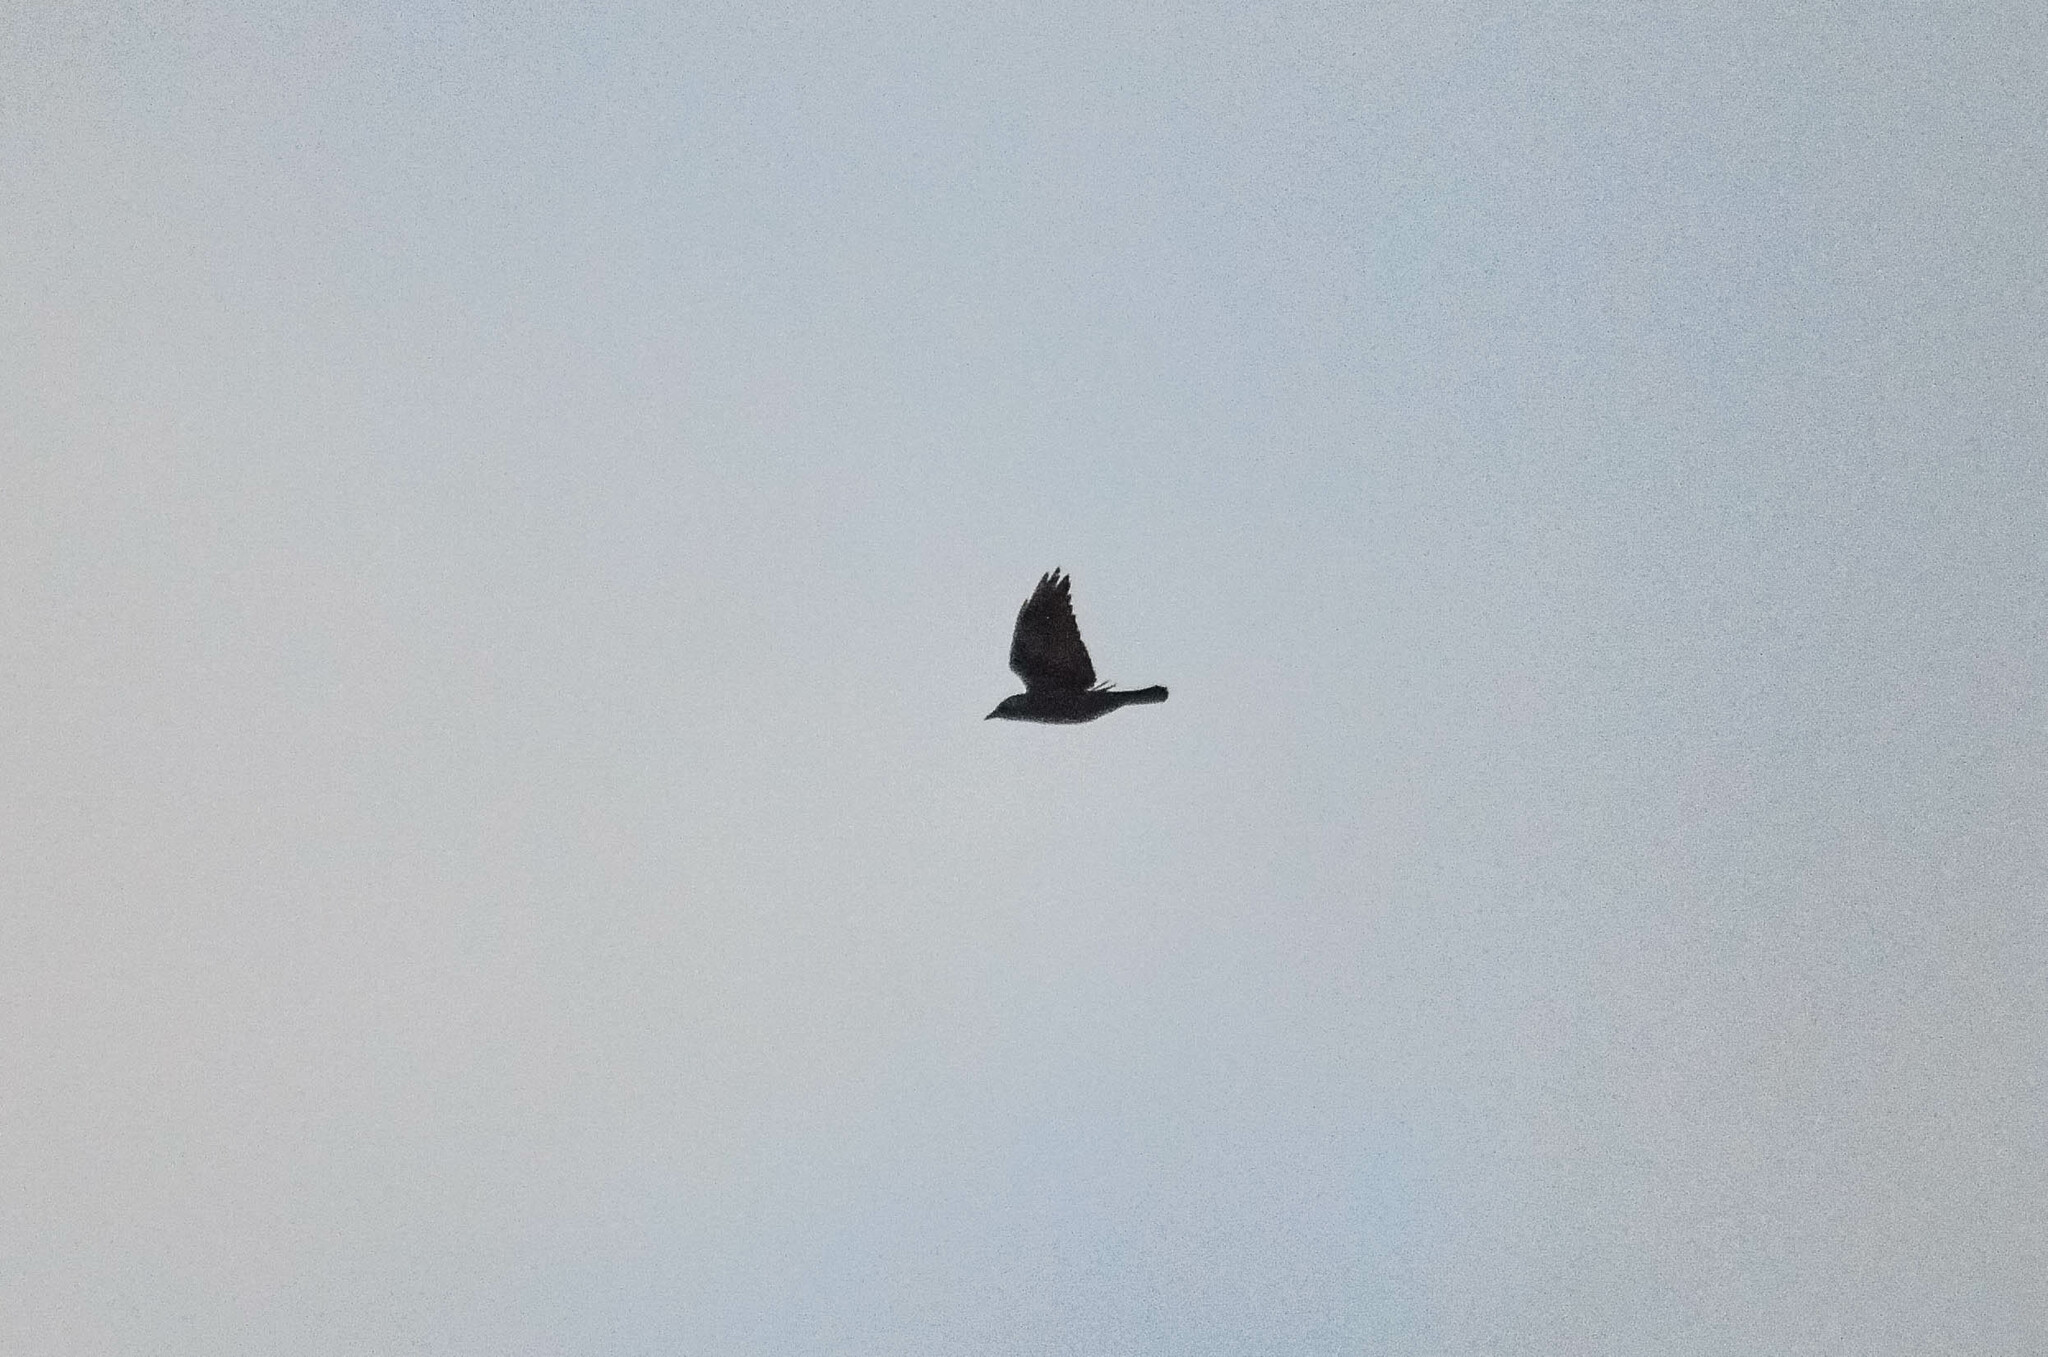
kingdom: Animalia
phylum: Chordata
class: Aves
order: Passeriformes
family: Corvidae
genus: Coloeus
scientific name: Coloeus monedula
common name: Western jackdaw
